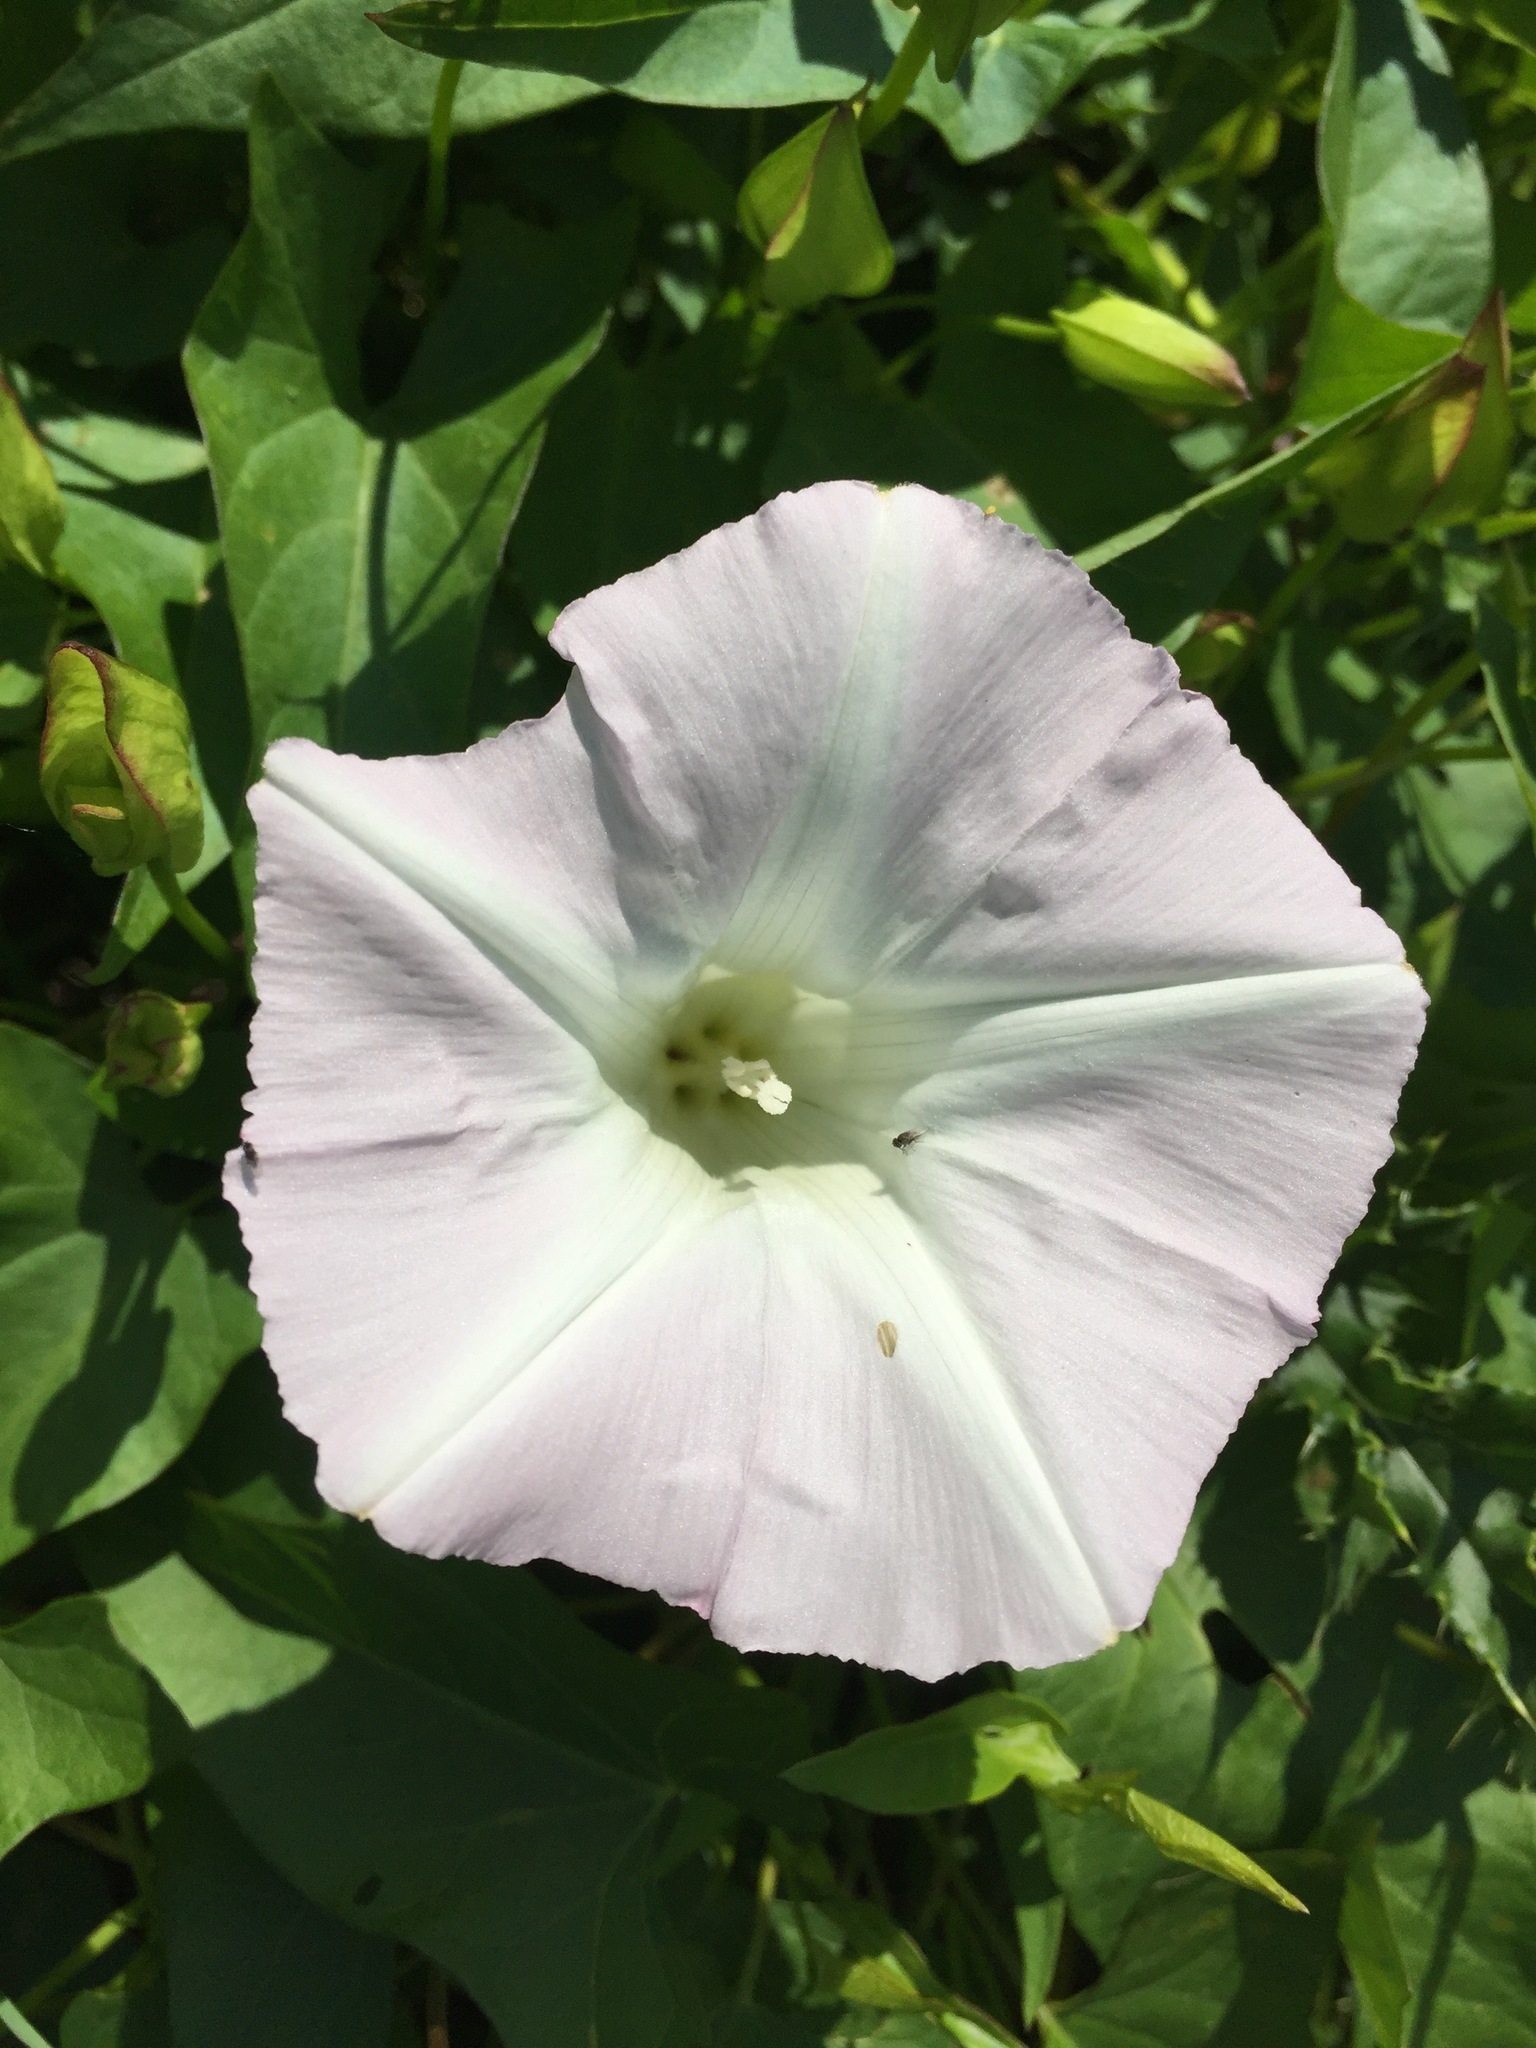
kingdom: Plantae
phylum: Tracheophyta
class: Magnoliopsida
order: Solanales
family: Convolvulaceae
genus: Calystegia
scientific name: Calystegia sepium
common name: Hedge bindweed
